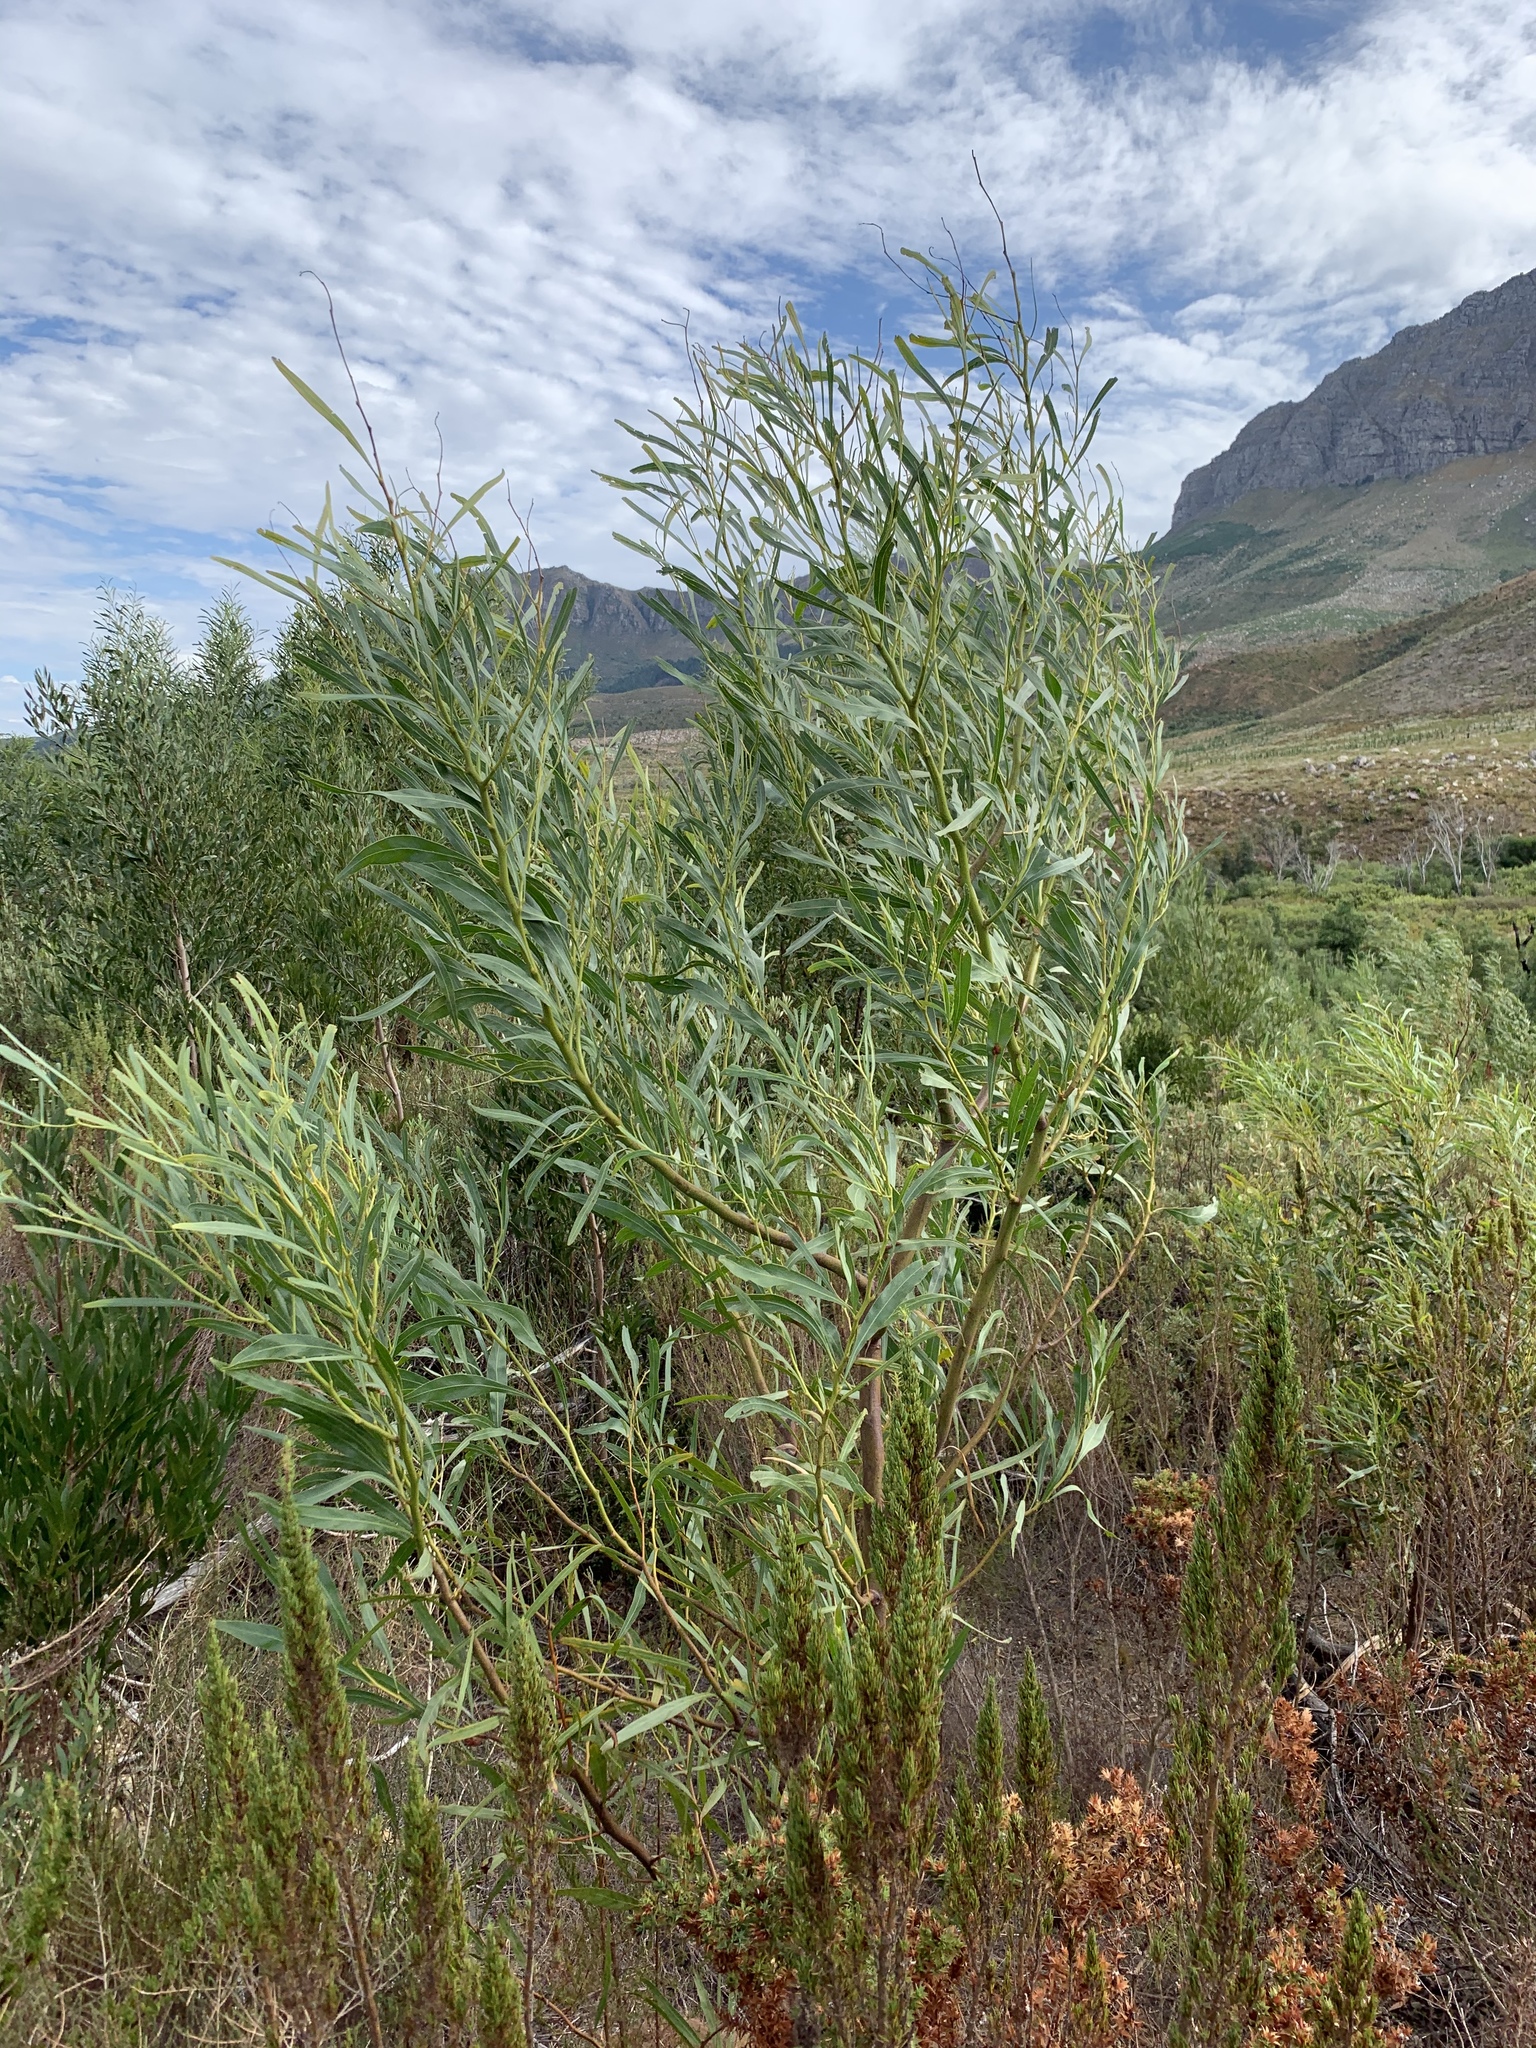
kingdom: Plantae
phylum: Tracheophyta
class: Magnoliopsida
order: Fabales
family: Fabaceae
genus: Acacia
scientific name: Acacia saligna
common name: Orange wattle
